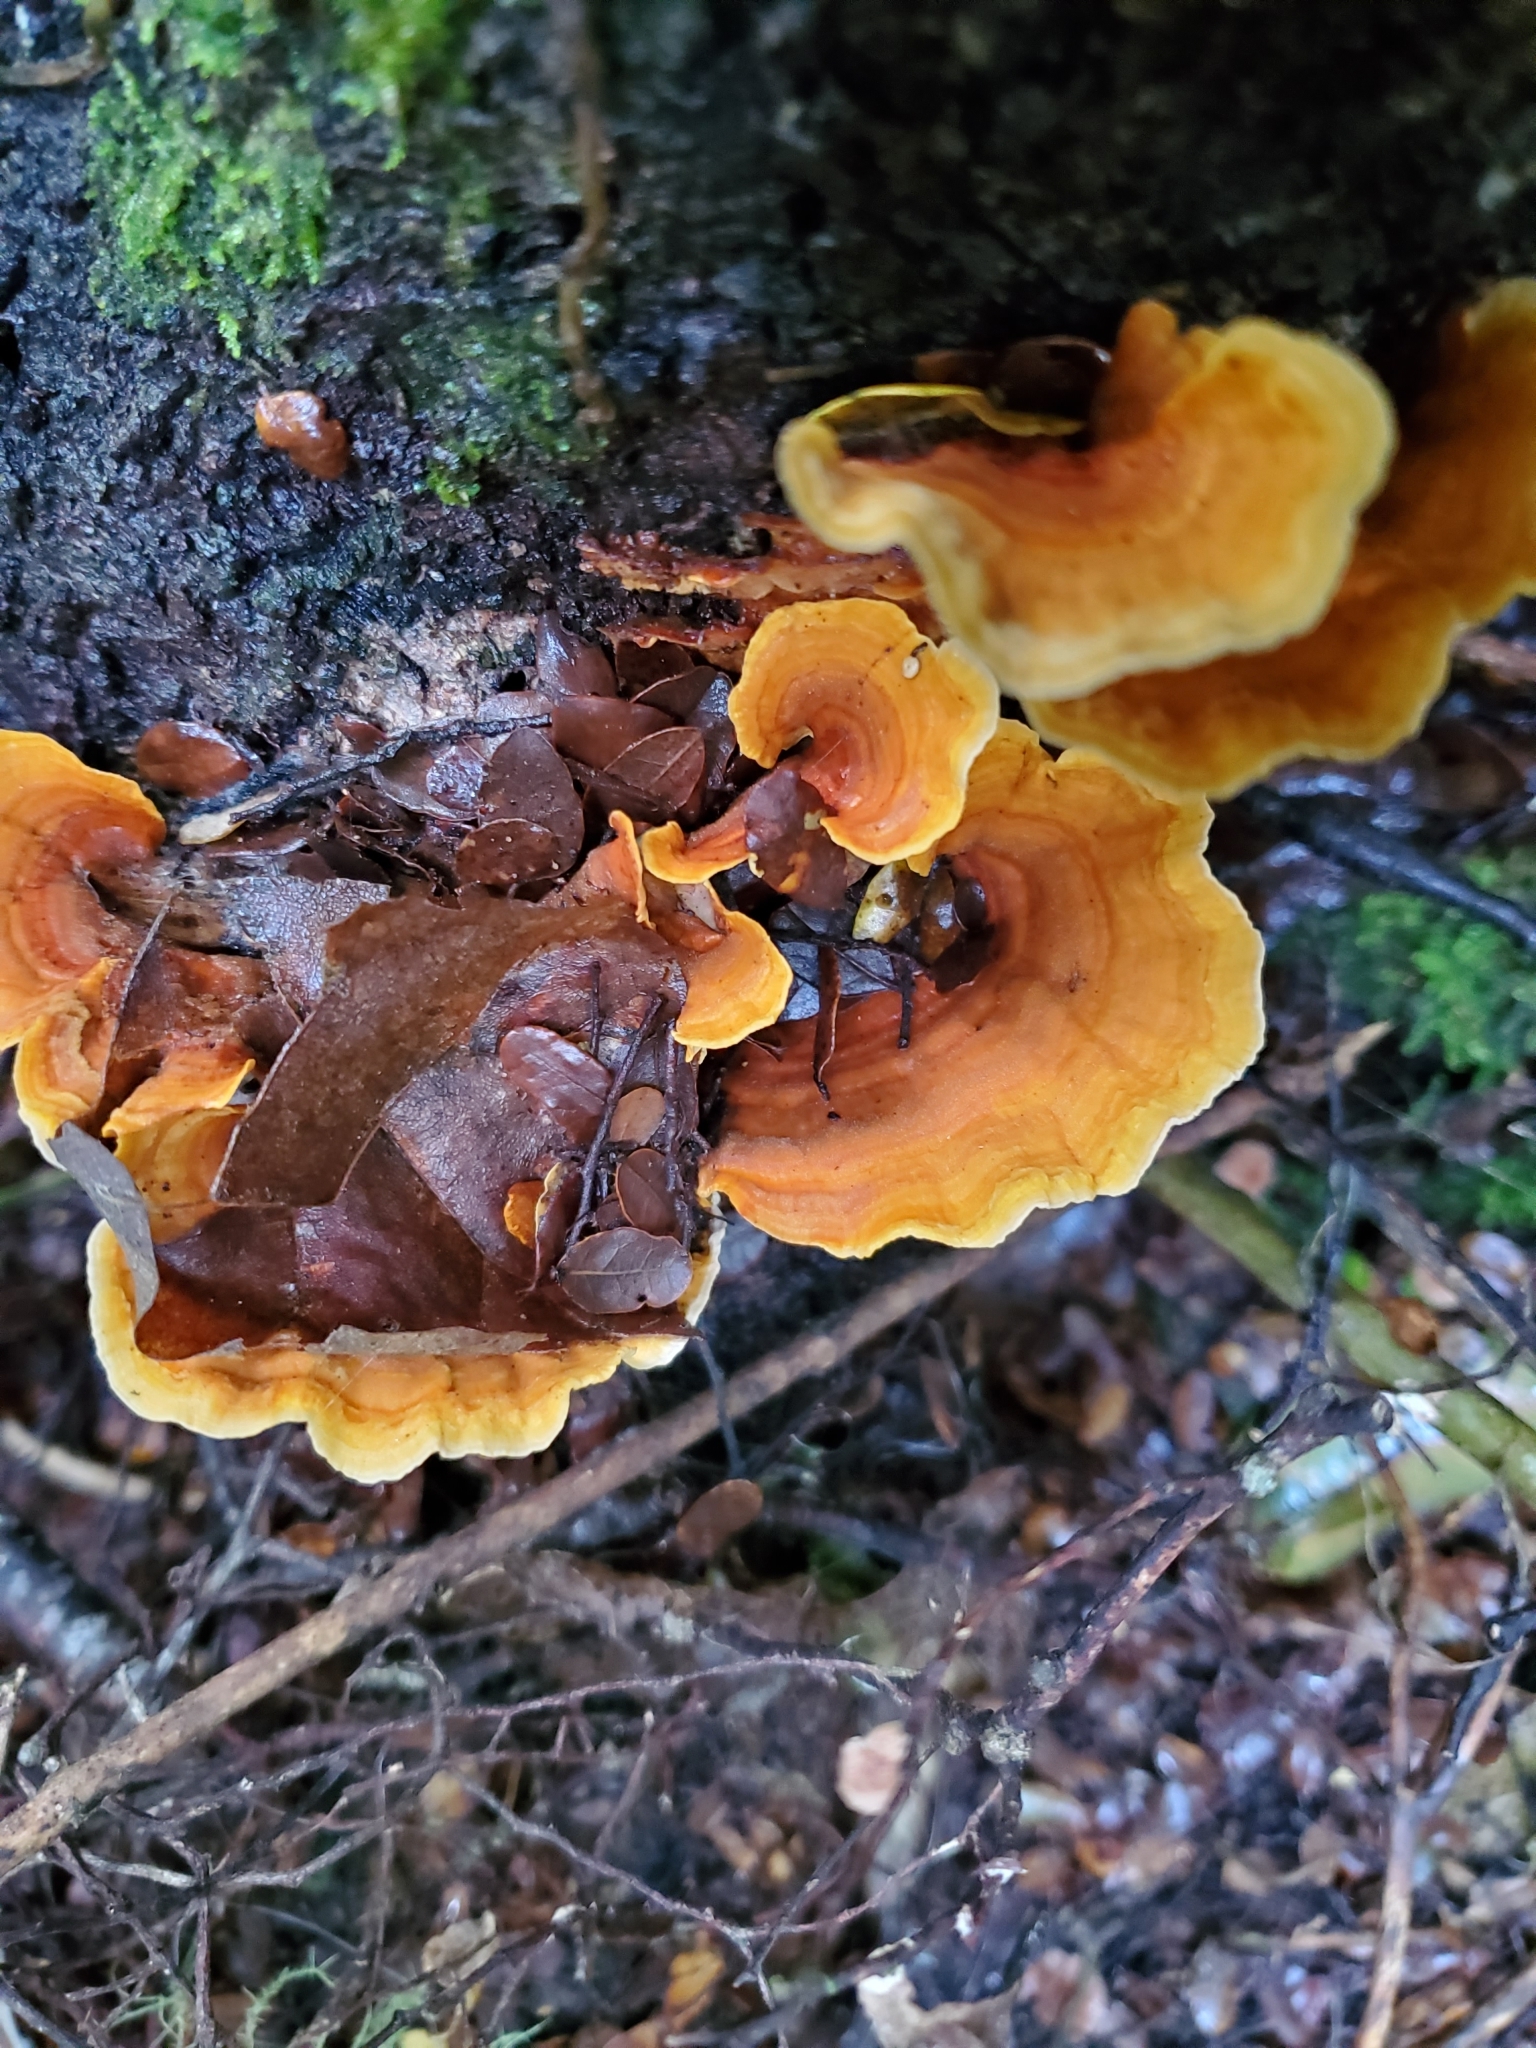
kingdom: Fungi
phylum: Basidiomycota
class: Agaricomycetes
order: Russulales
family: Stereaceae
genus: Stereum
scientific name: Stereum versicolor
